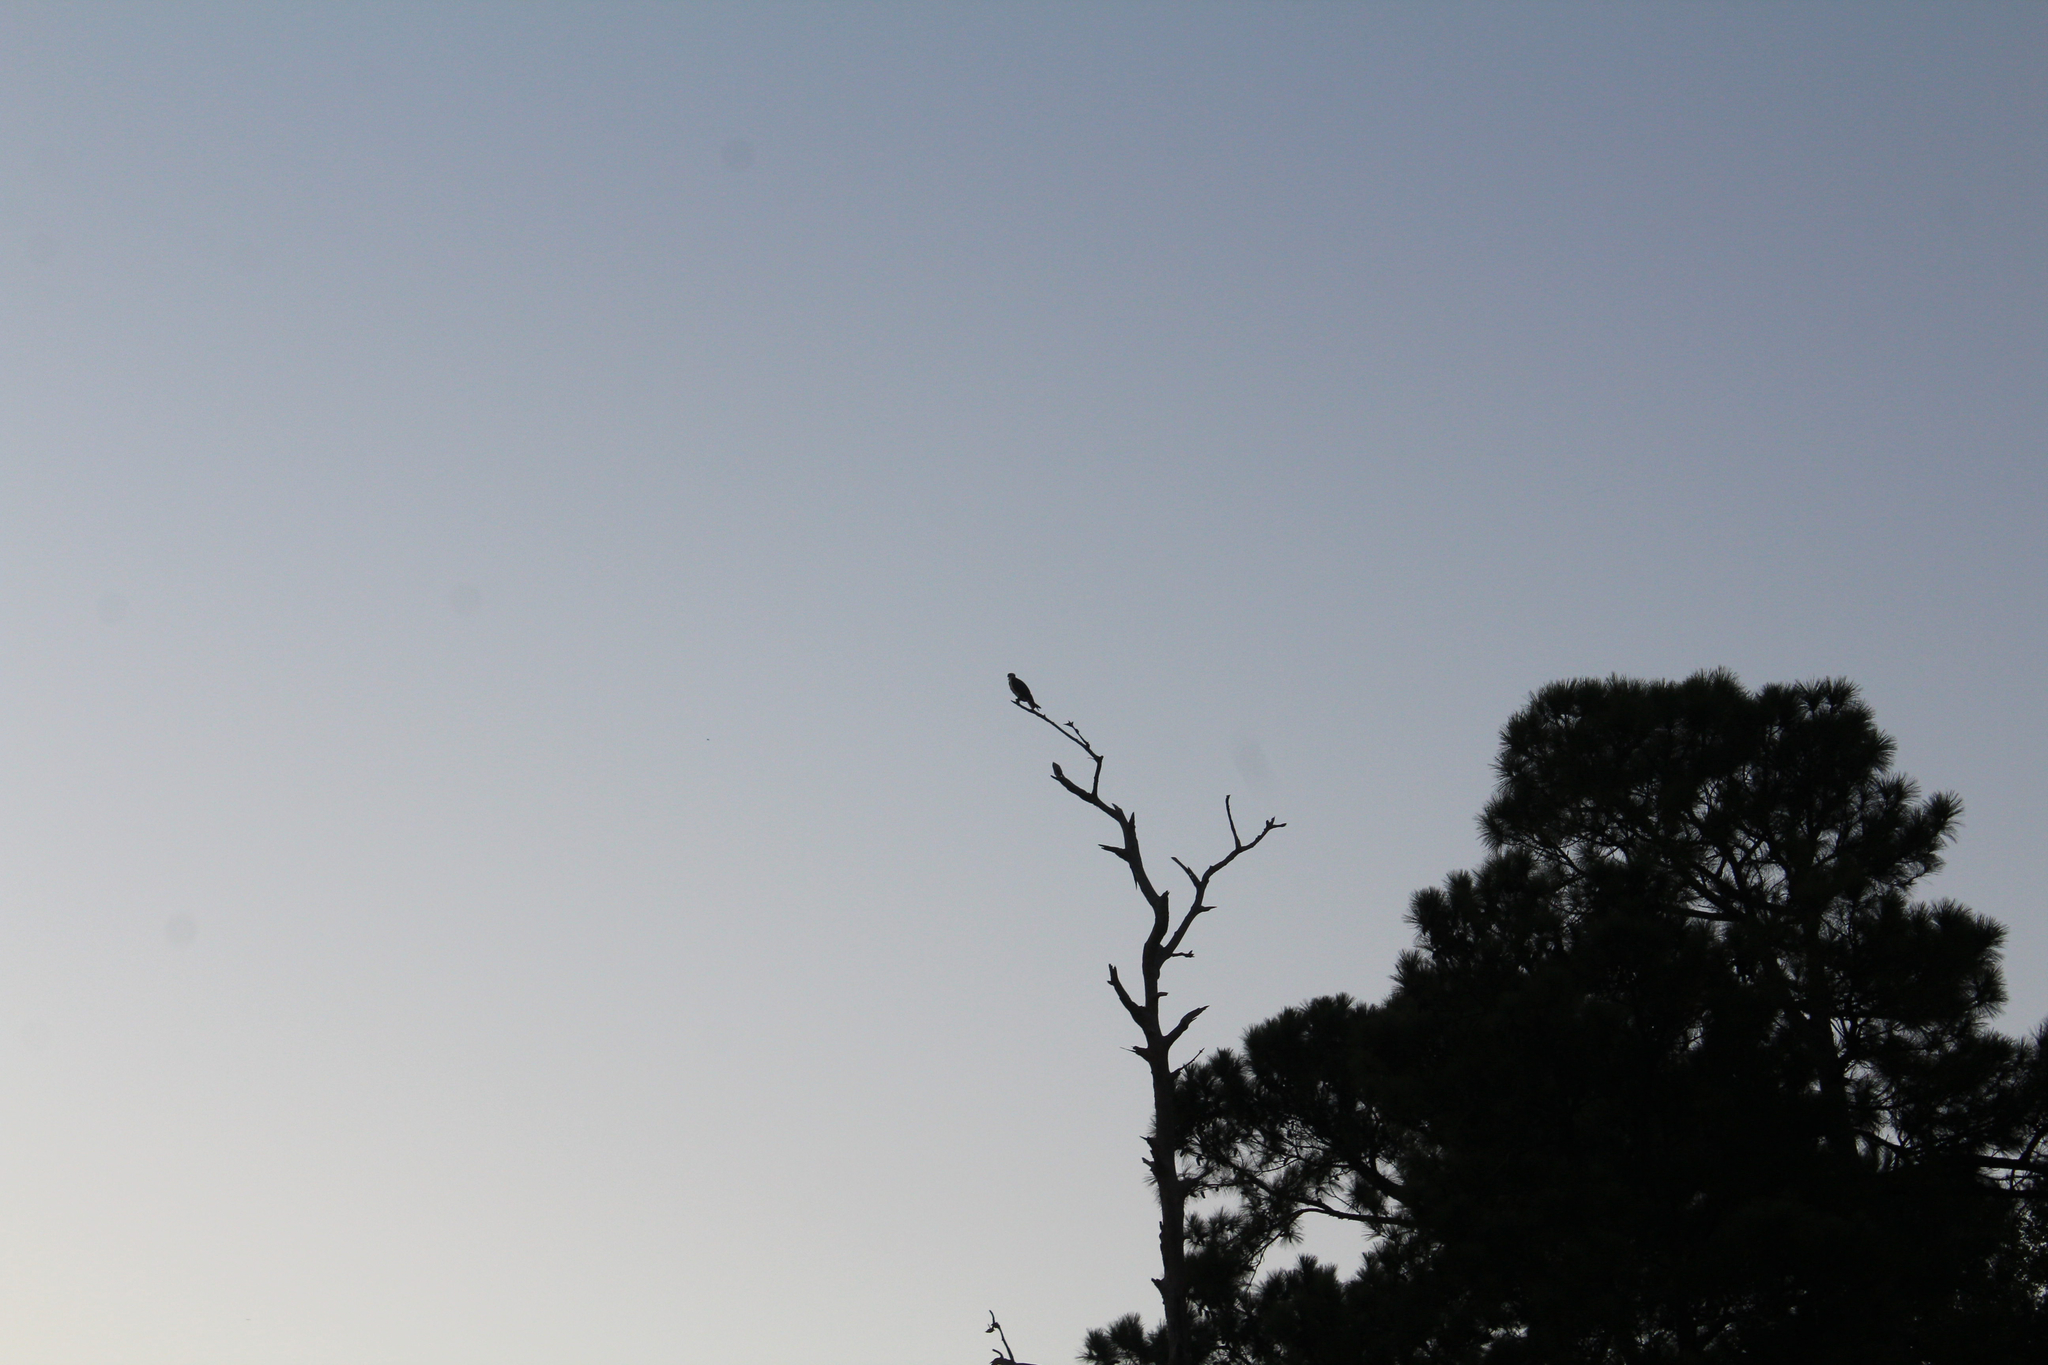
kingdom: Animalia
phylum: Chordata
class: Aves
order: Accipitriformes
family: Pandionidae
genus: Pandion
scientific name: Pandion haliaetus
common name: Osprey
